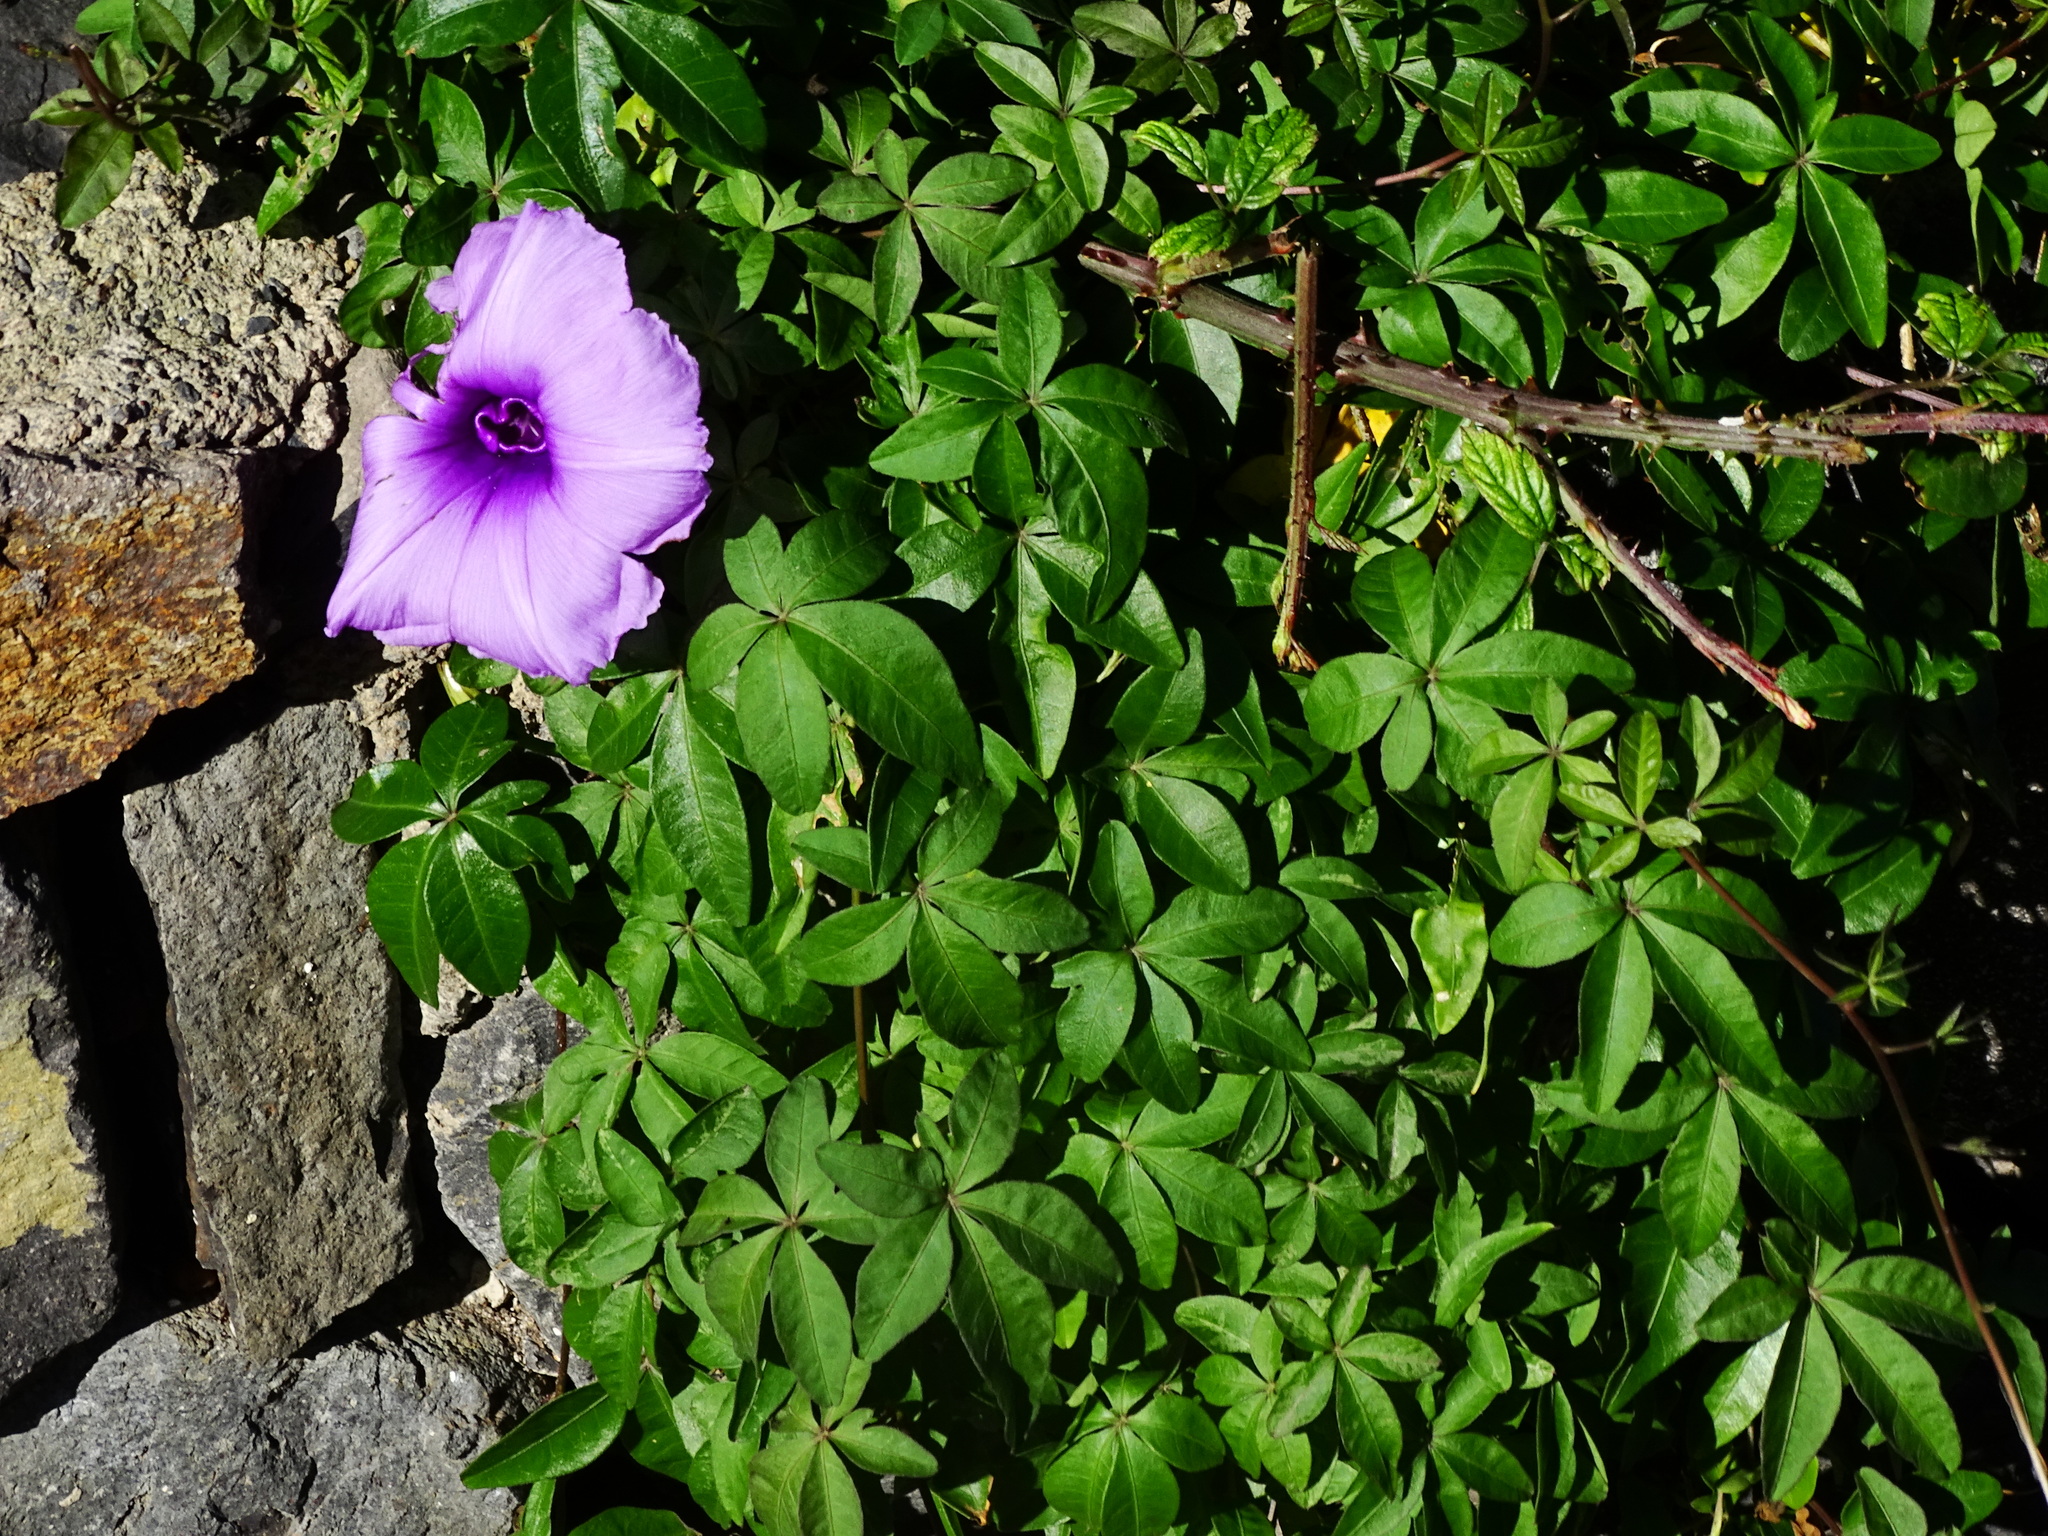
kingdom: Plantae
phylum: Tracheophyta
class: Magnoliopsida
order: Solanales
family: Convolvulaceae
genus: Ipomoea
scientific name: Ipomoea cairica
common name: Mile a minute vine
